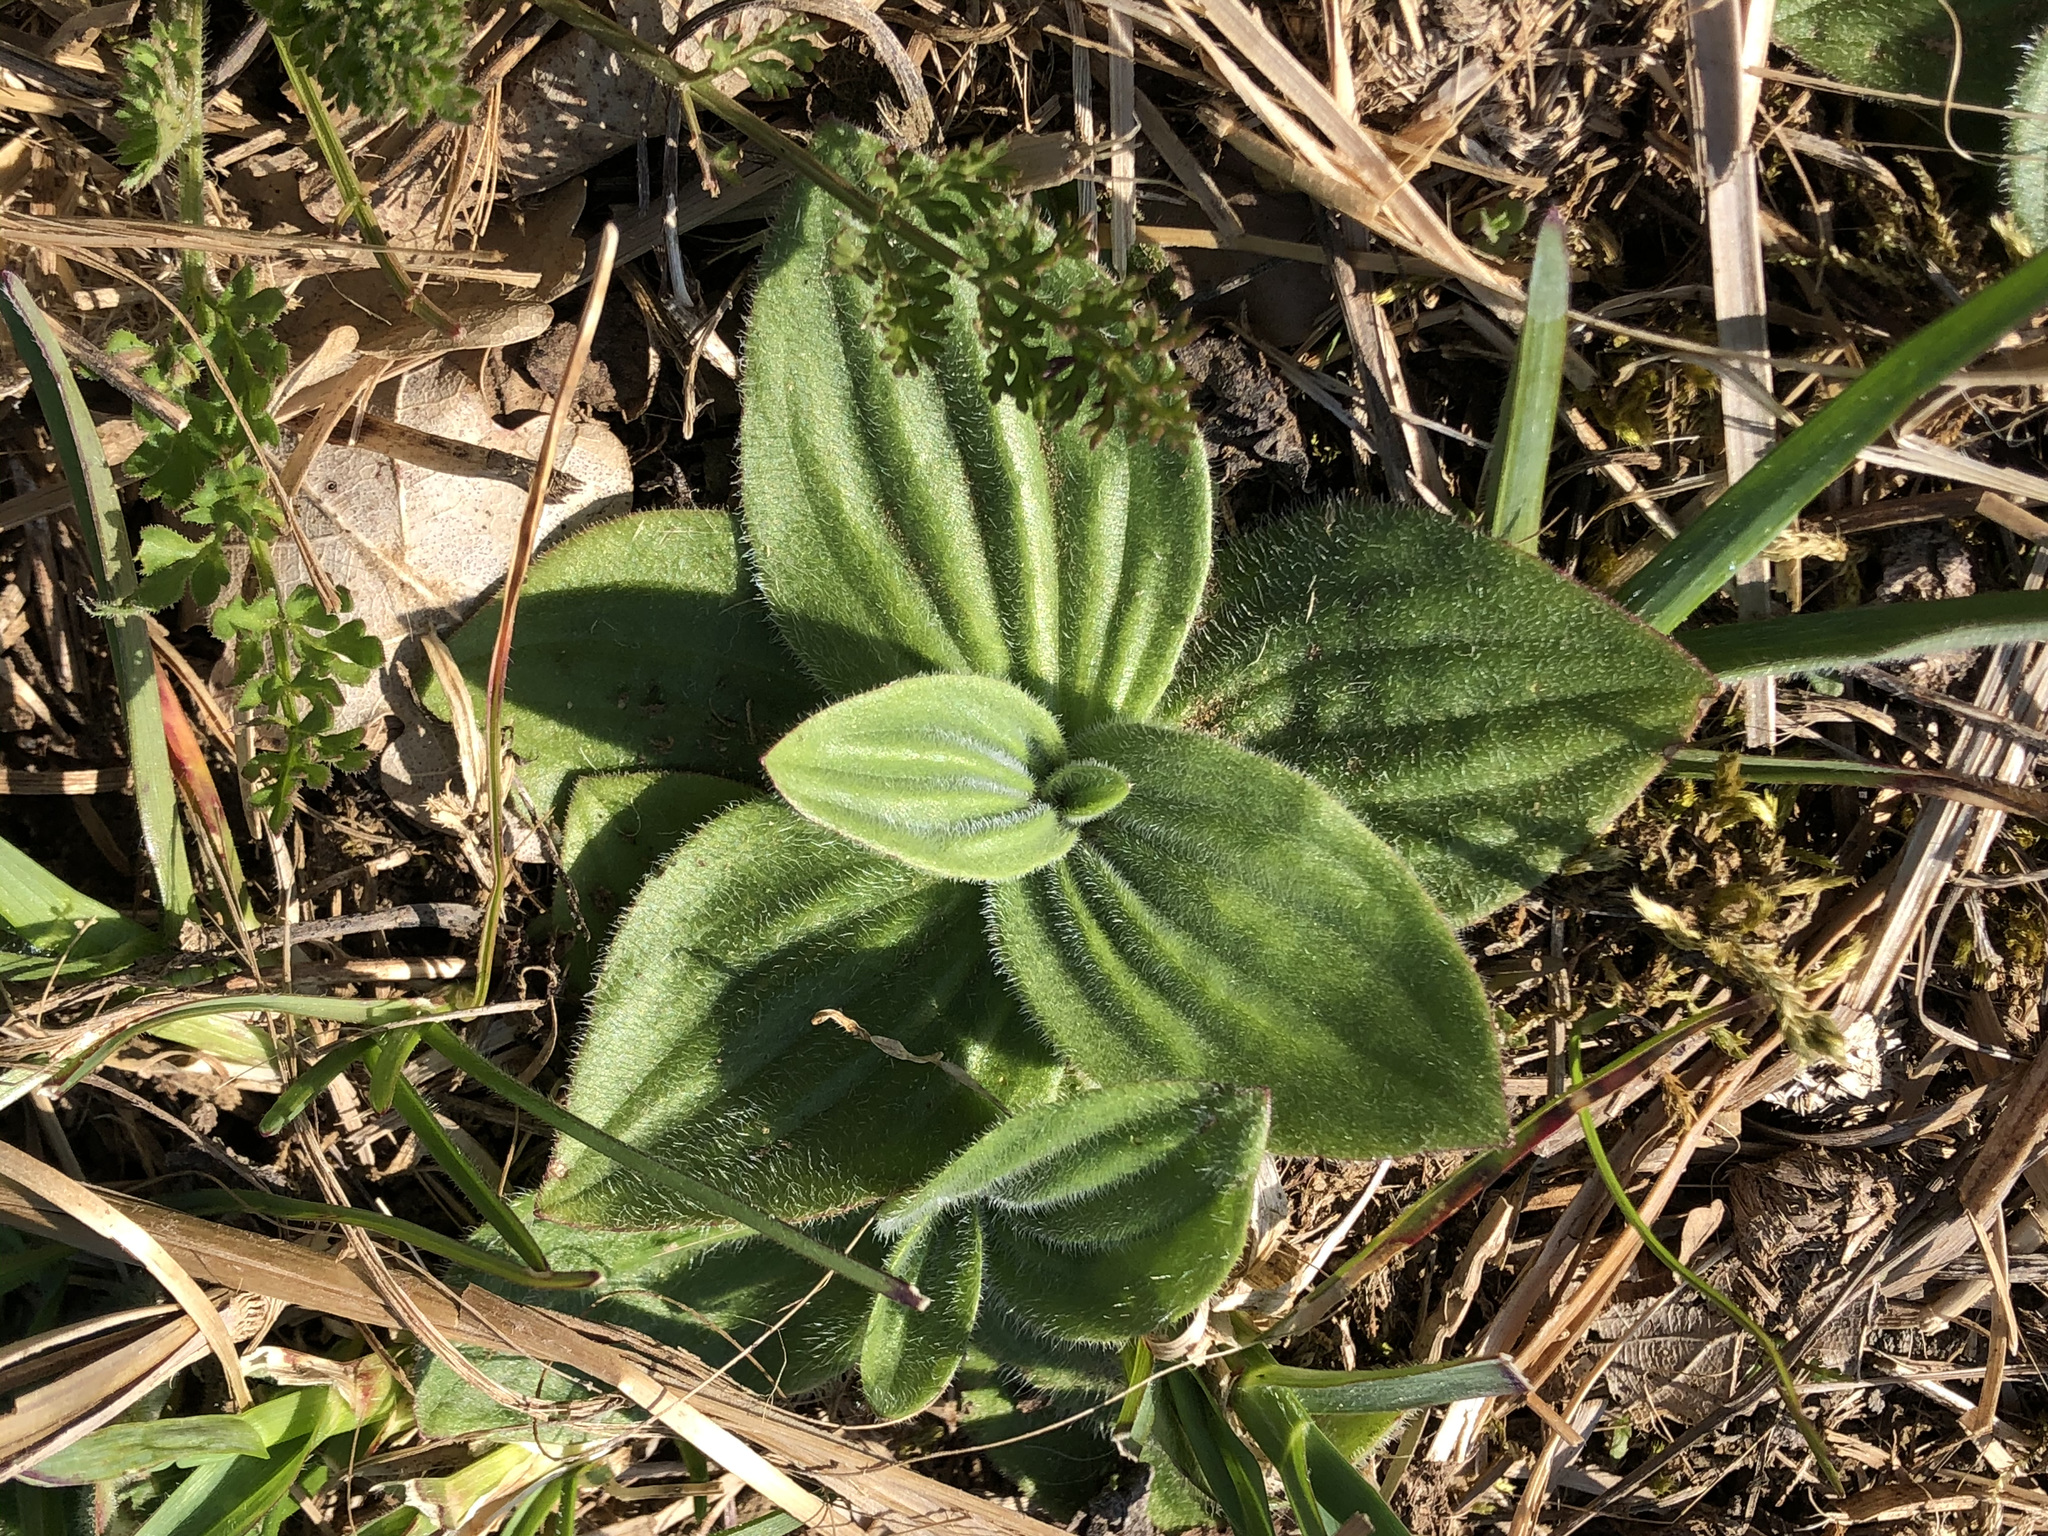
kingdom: Plantae
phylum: Tracheophyta
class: Magnoliopsida
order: Lamiales
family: Plantaginaceae
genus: Plantago
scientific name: Plantago media
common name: Hoary plantain
